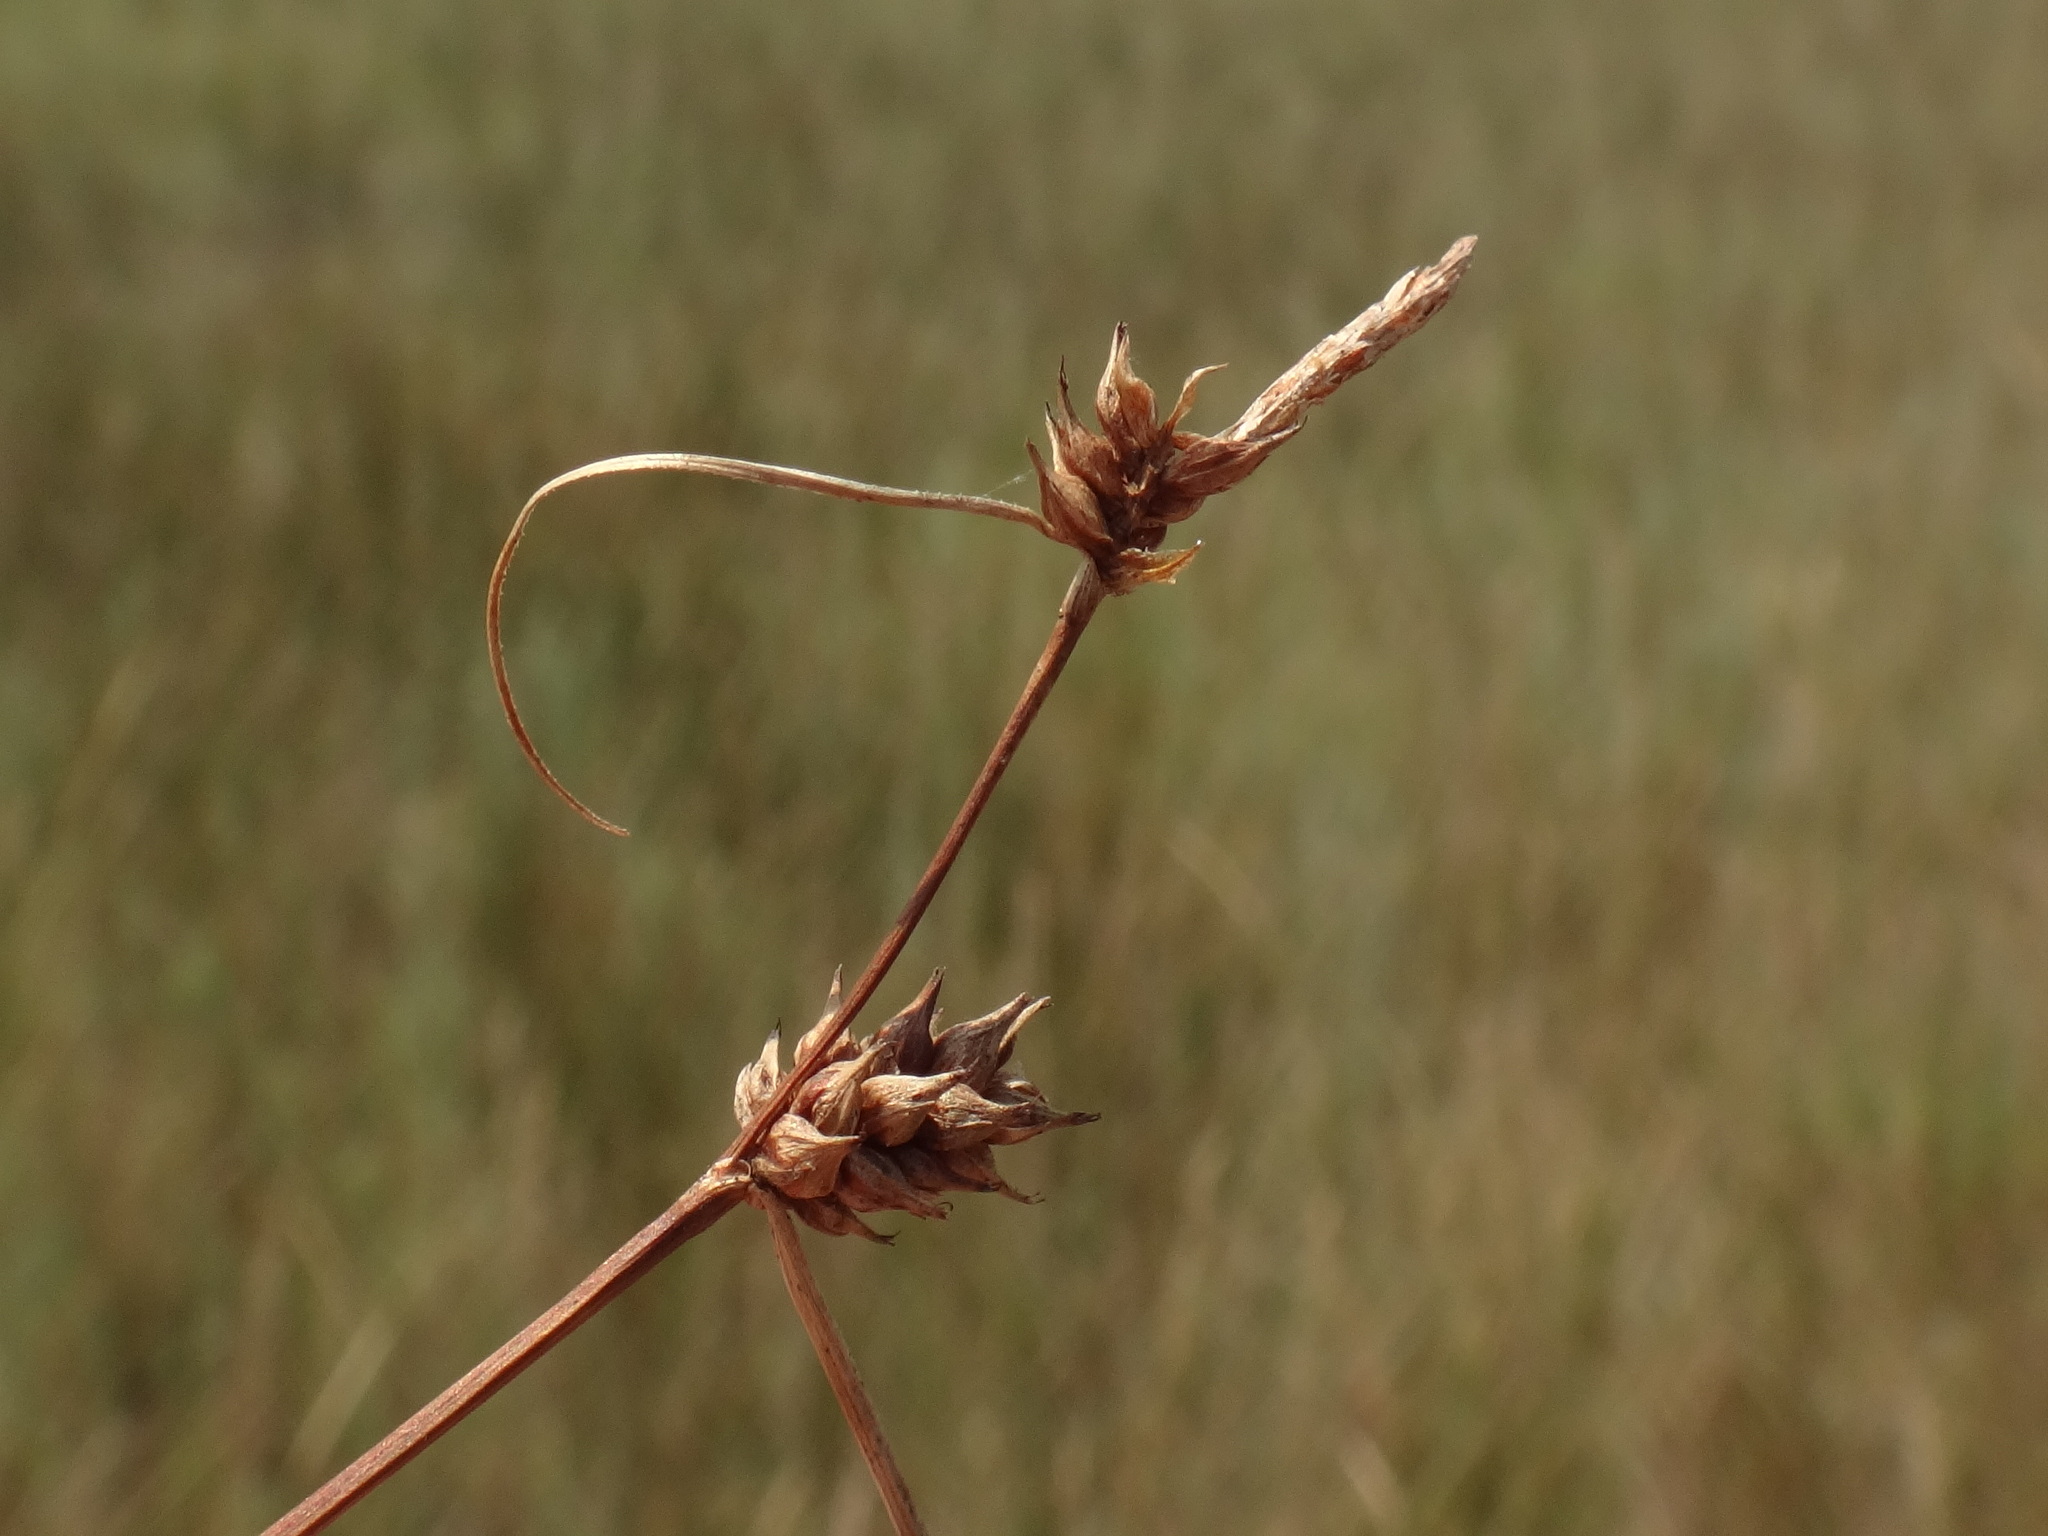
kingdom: Plantae
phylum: Tracheophyta
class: Liliopsida
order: Poales
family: Cyperaceae
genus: Carex
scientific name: Carex extensa
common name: Long-bracted sedge
